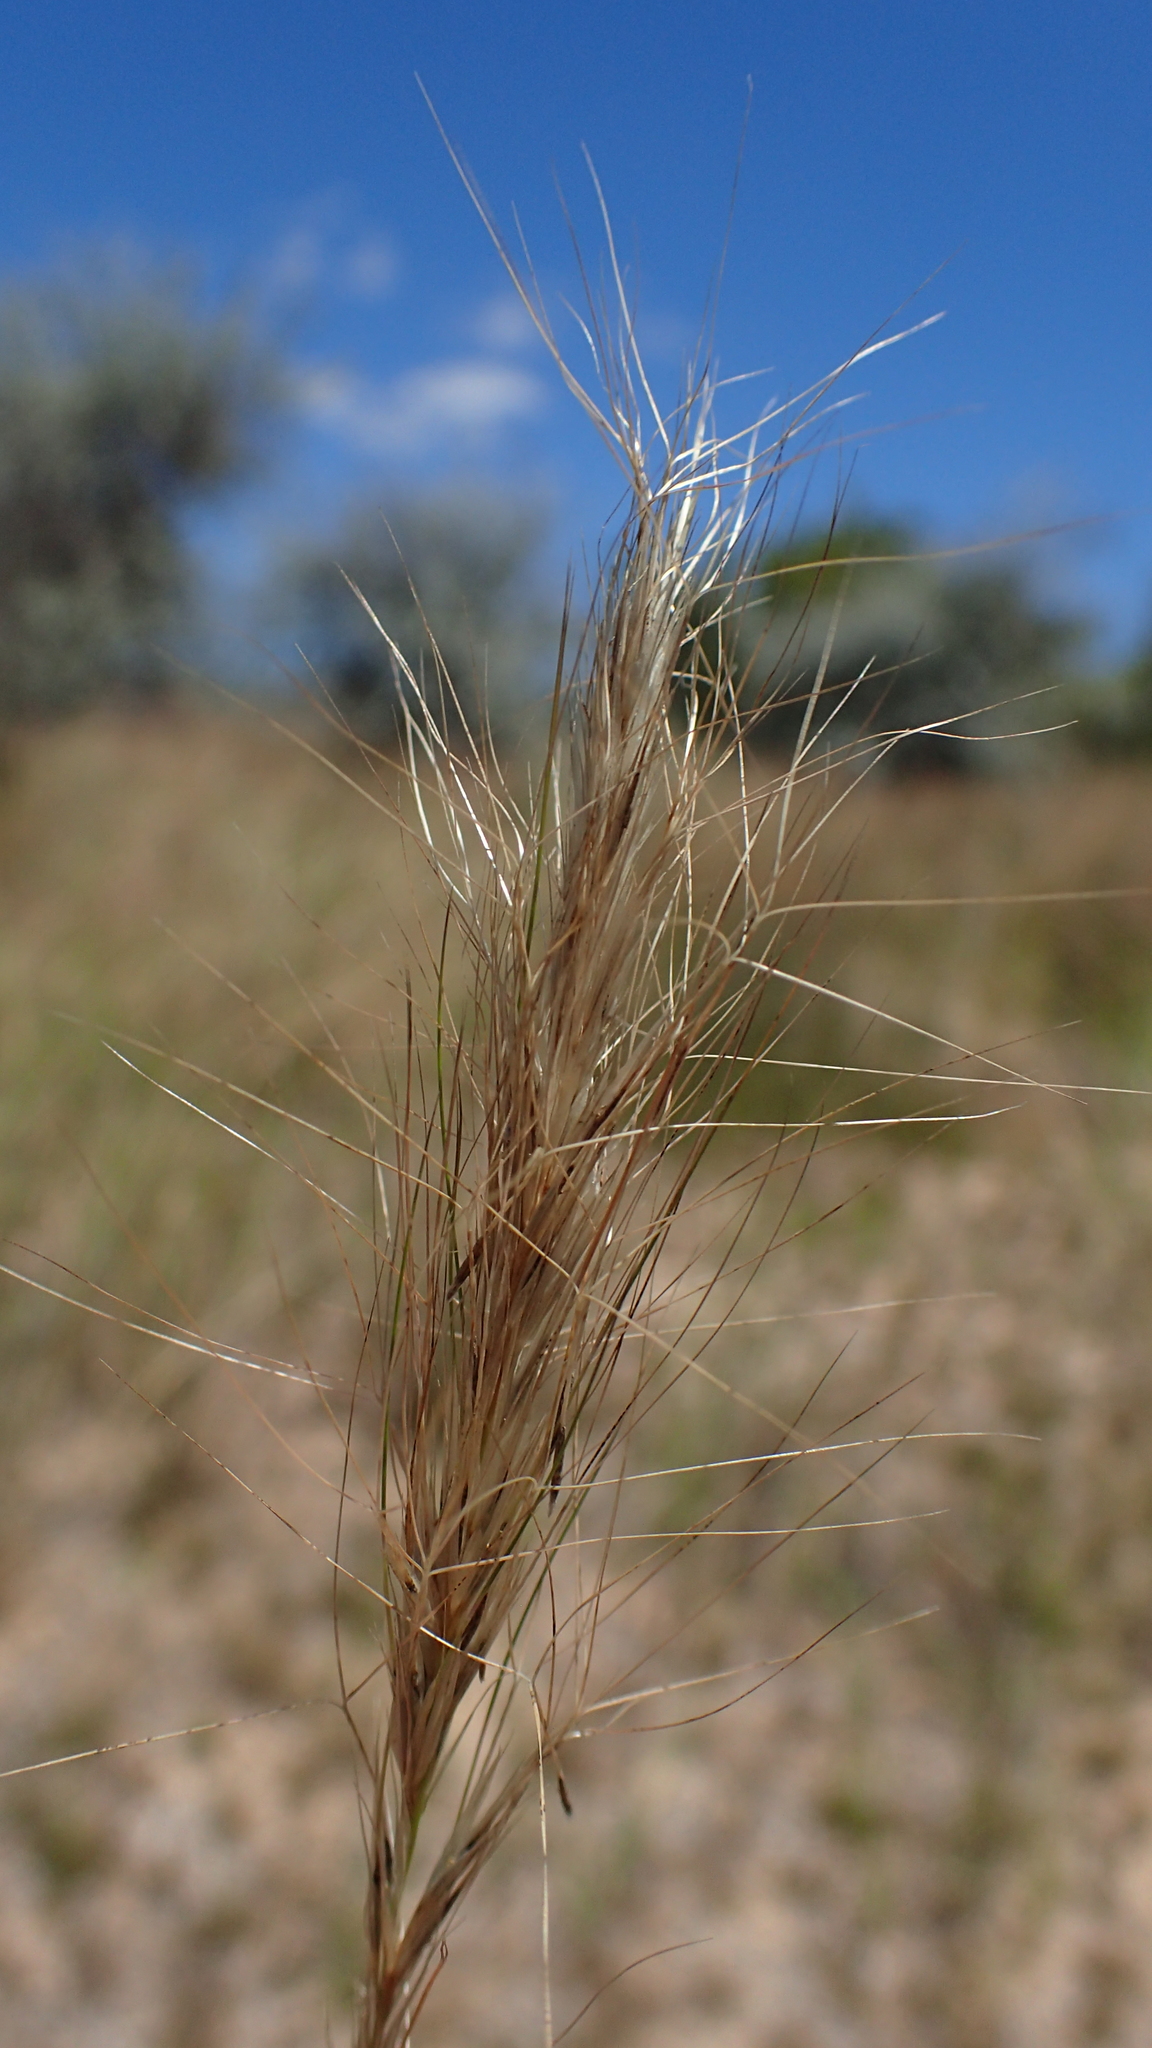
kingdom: Plantae
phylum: Tracheophyta
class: Liliopsida
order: Poales
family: Poaceae
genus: Aristida
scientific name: Aristida congesta
